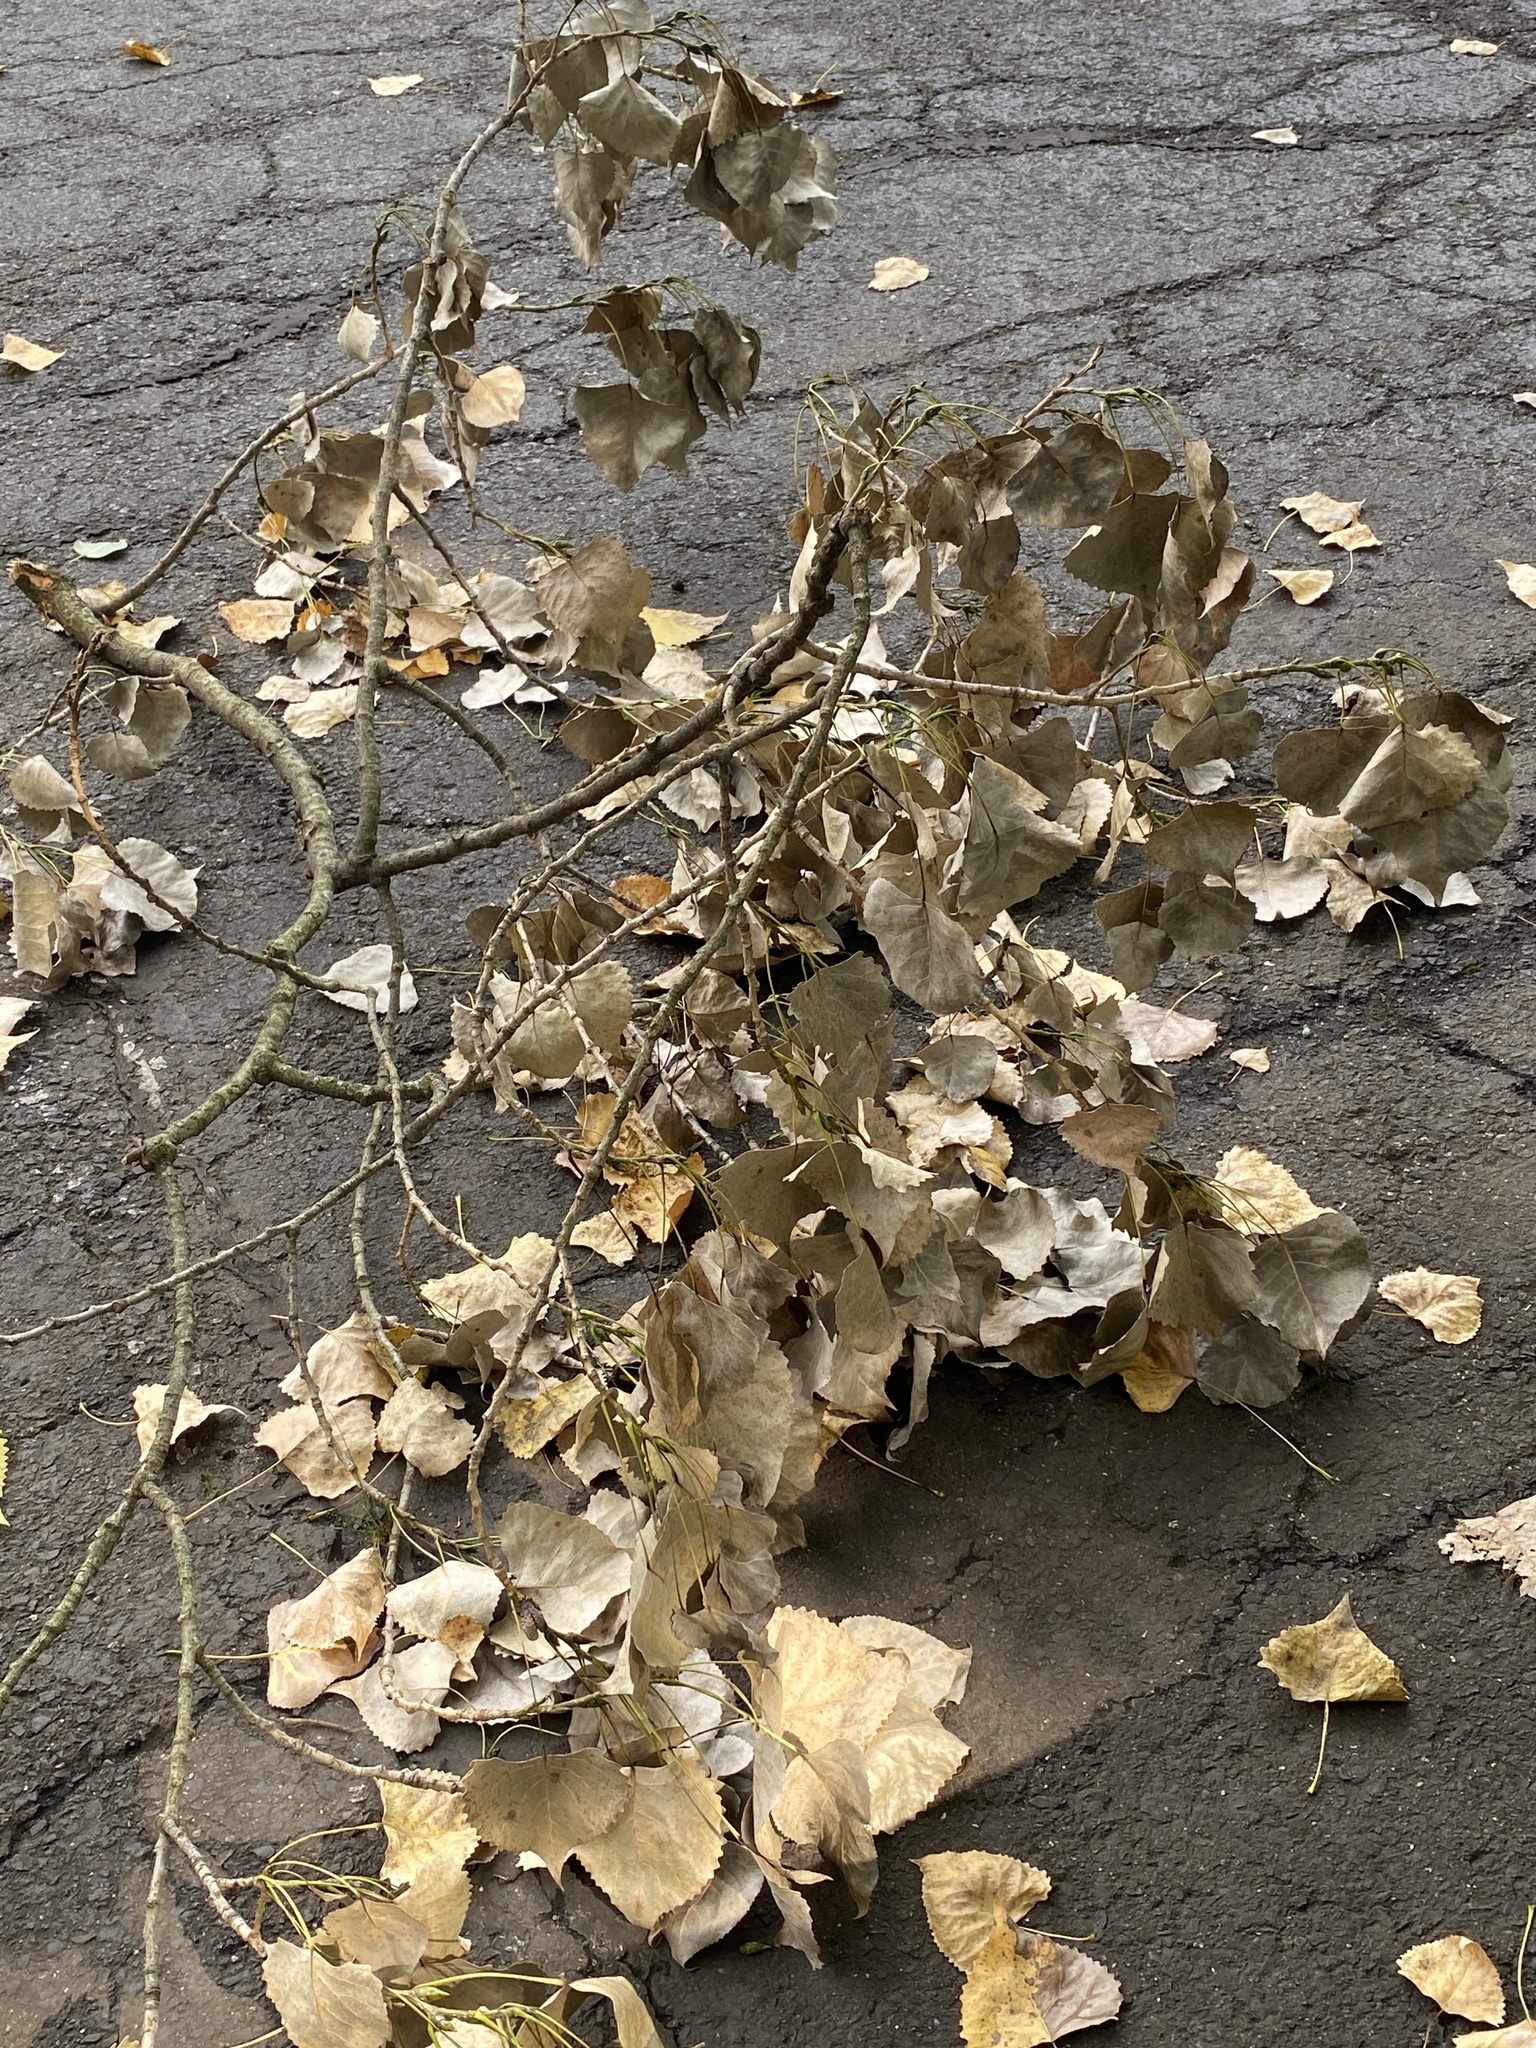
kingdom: Plantae
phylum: Tracheophyta
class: Magnoliopsida
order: Malpighiales
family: Salicaceae
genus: Populus
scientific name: Populus deltoides
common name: Eastern cottonwood
